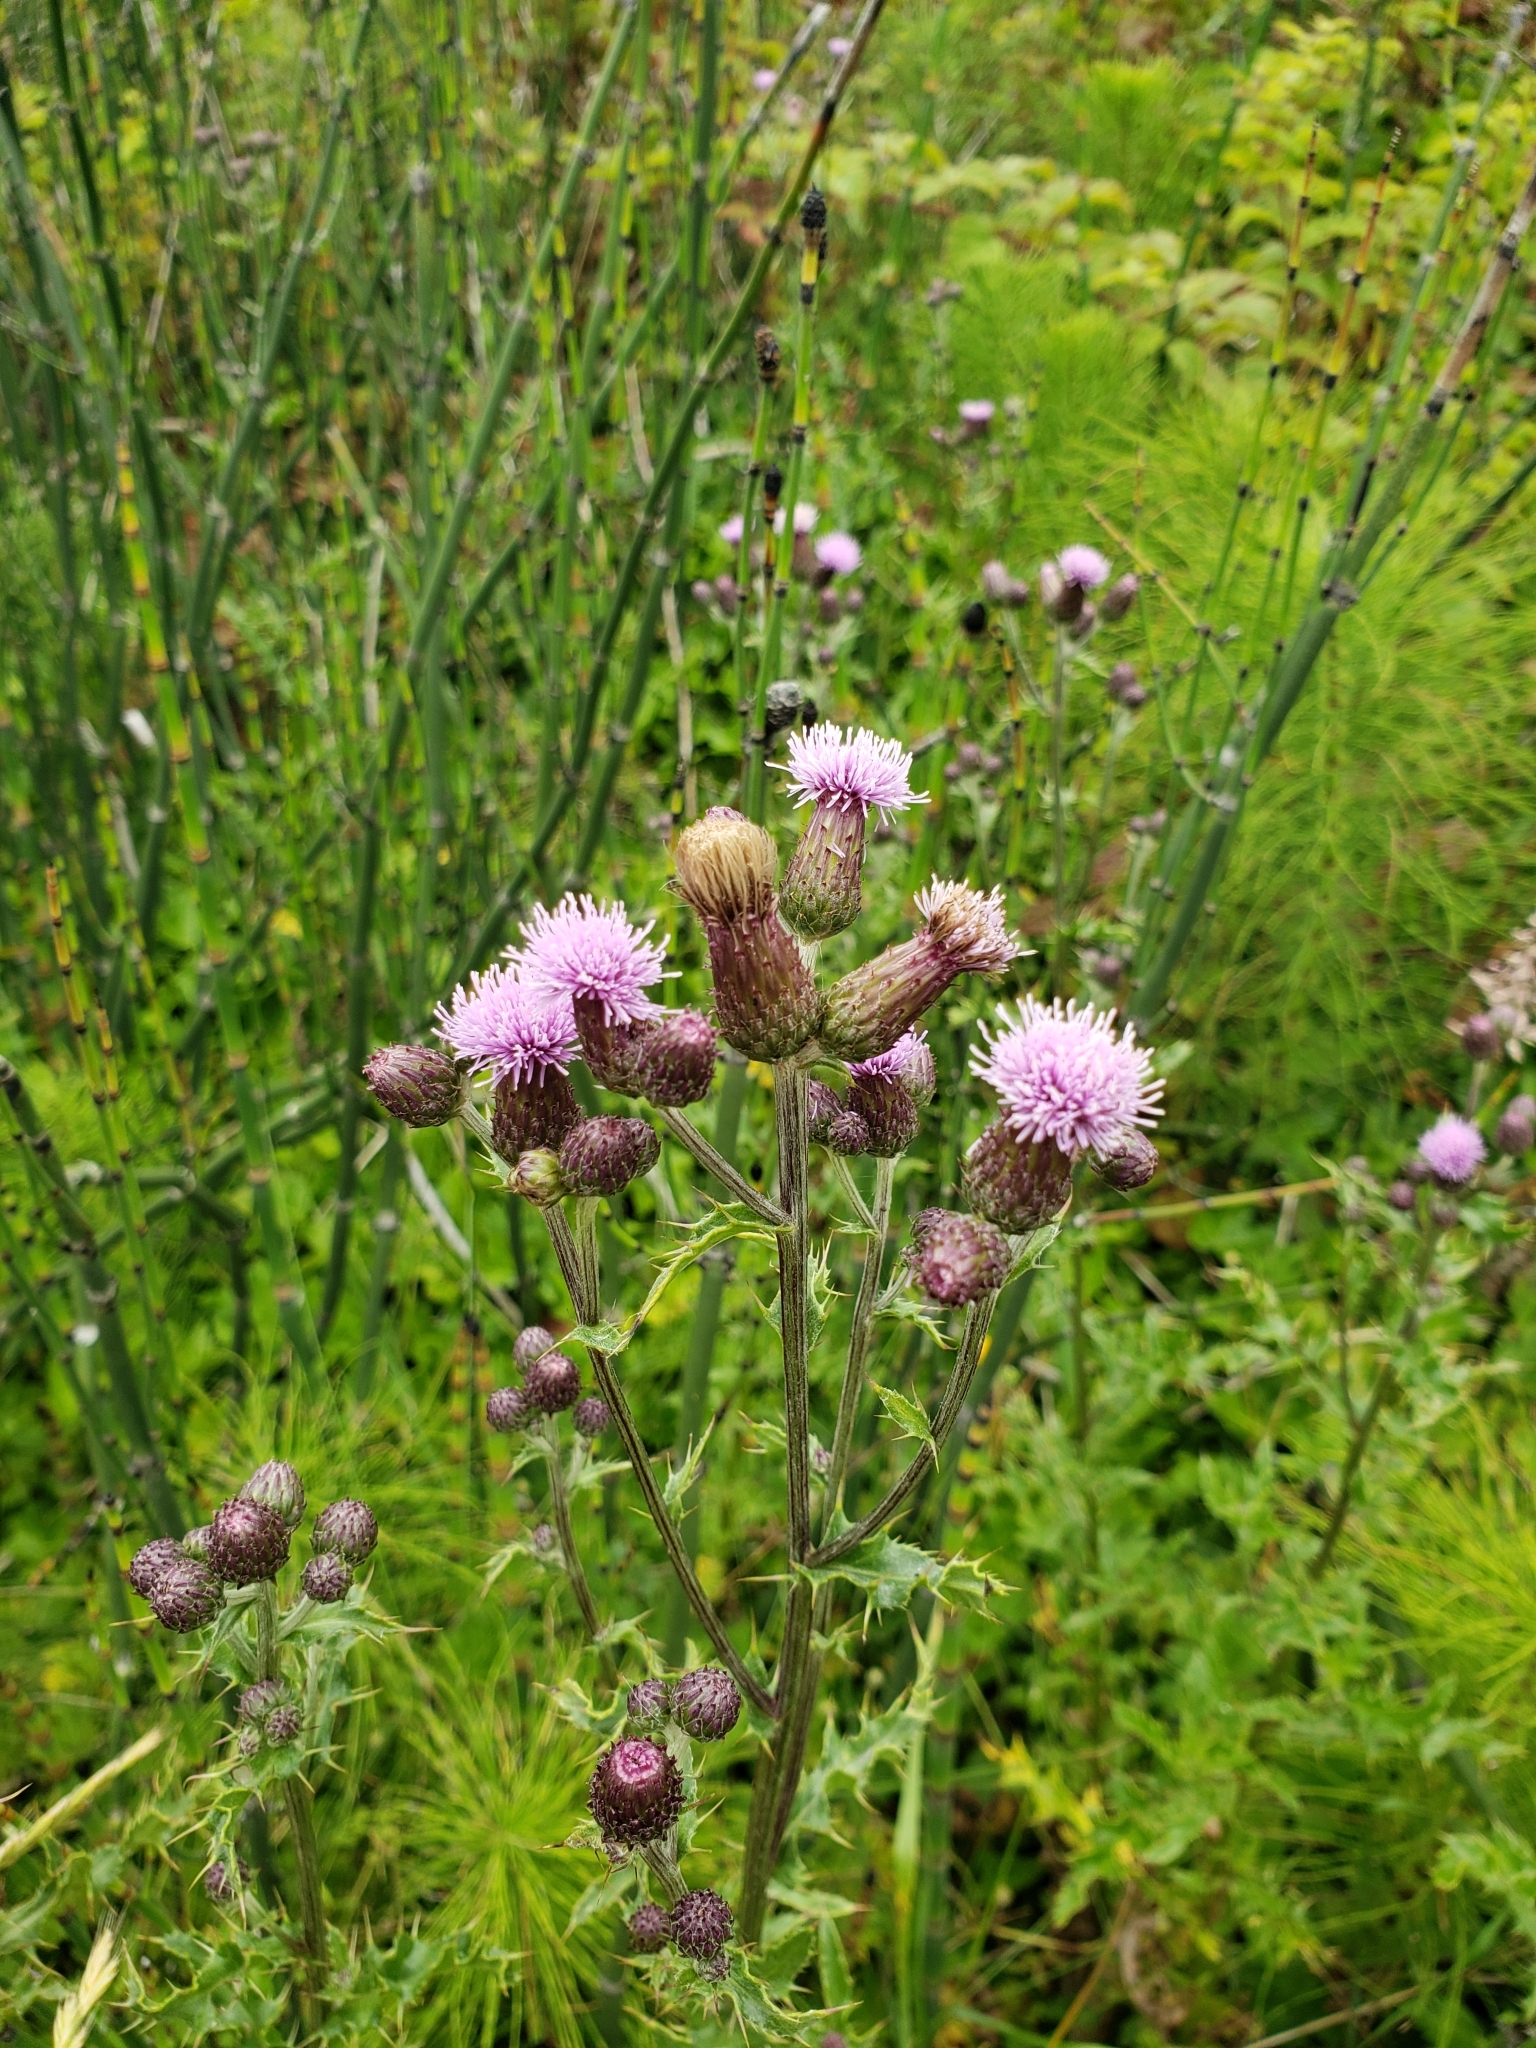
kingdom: Plantae
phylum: Tracheophyta
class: Magnoliopsida
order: Asterales
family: Asteraceae
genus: Cirsium
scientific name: Cirsium arvense
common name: Creeping thistle
